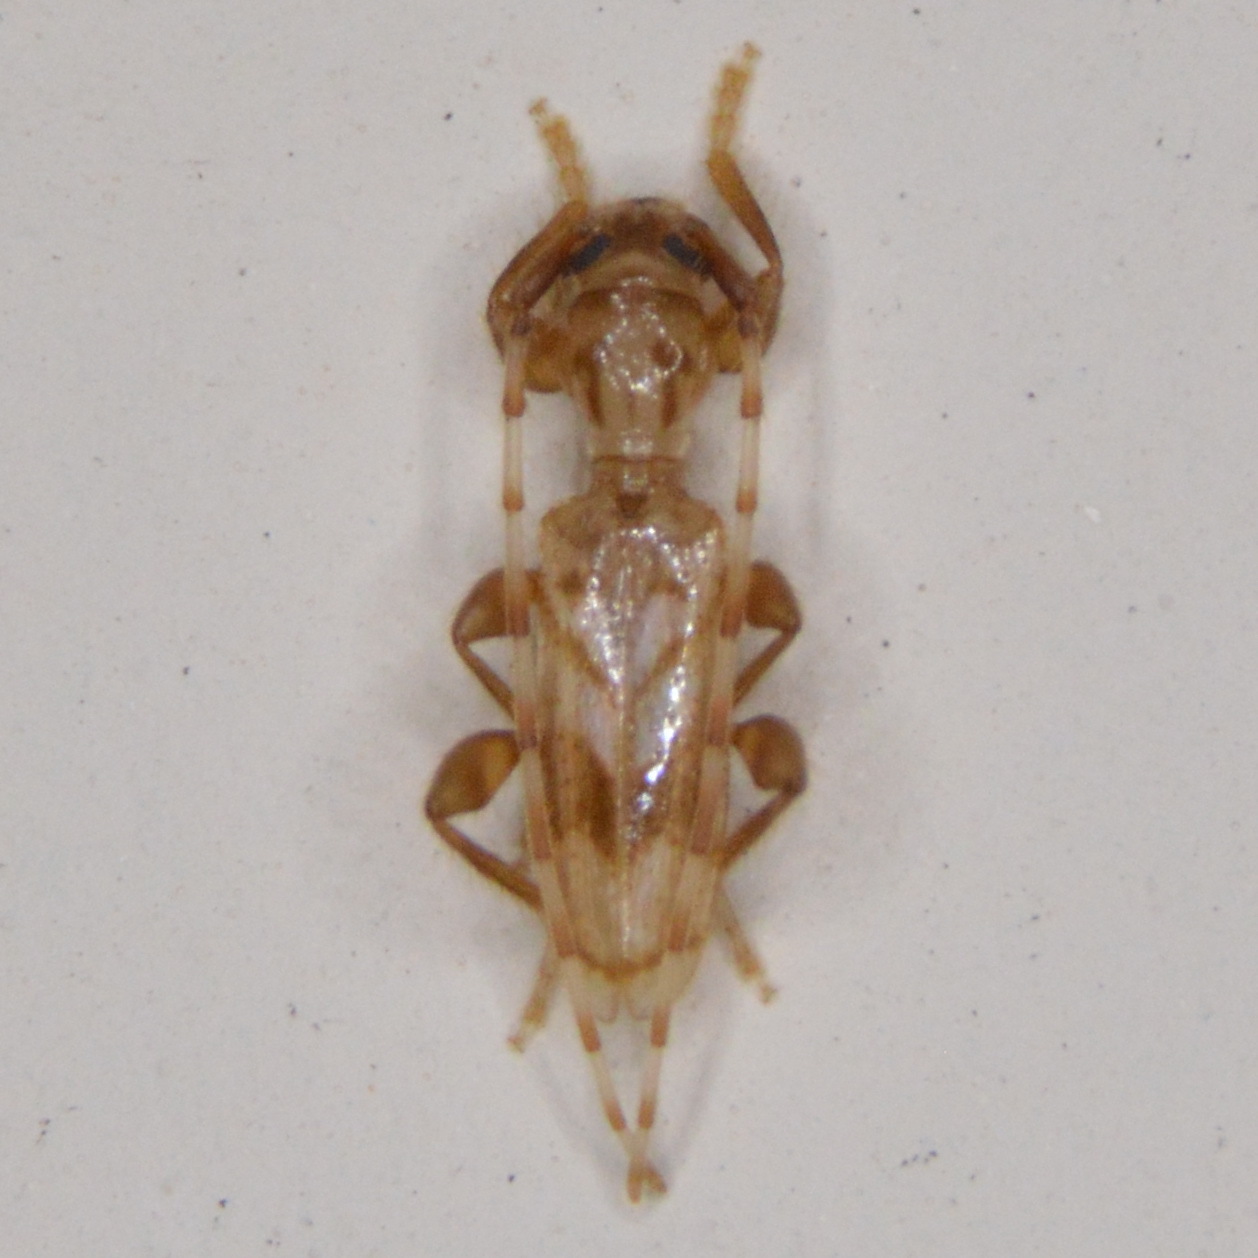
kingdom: Animalia
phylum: Arthropoda
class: Insecta
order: Coleoptera
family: Cerambycidae
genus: Obrium
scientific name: Obrium maculatum
